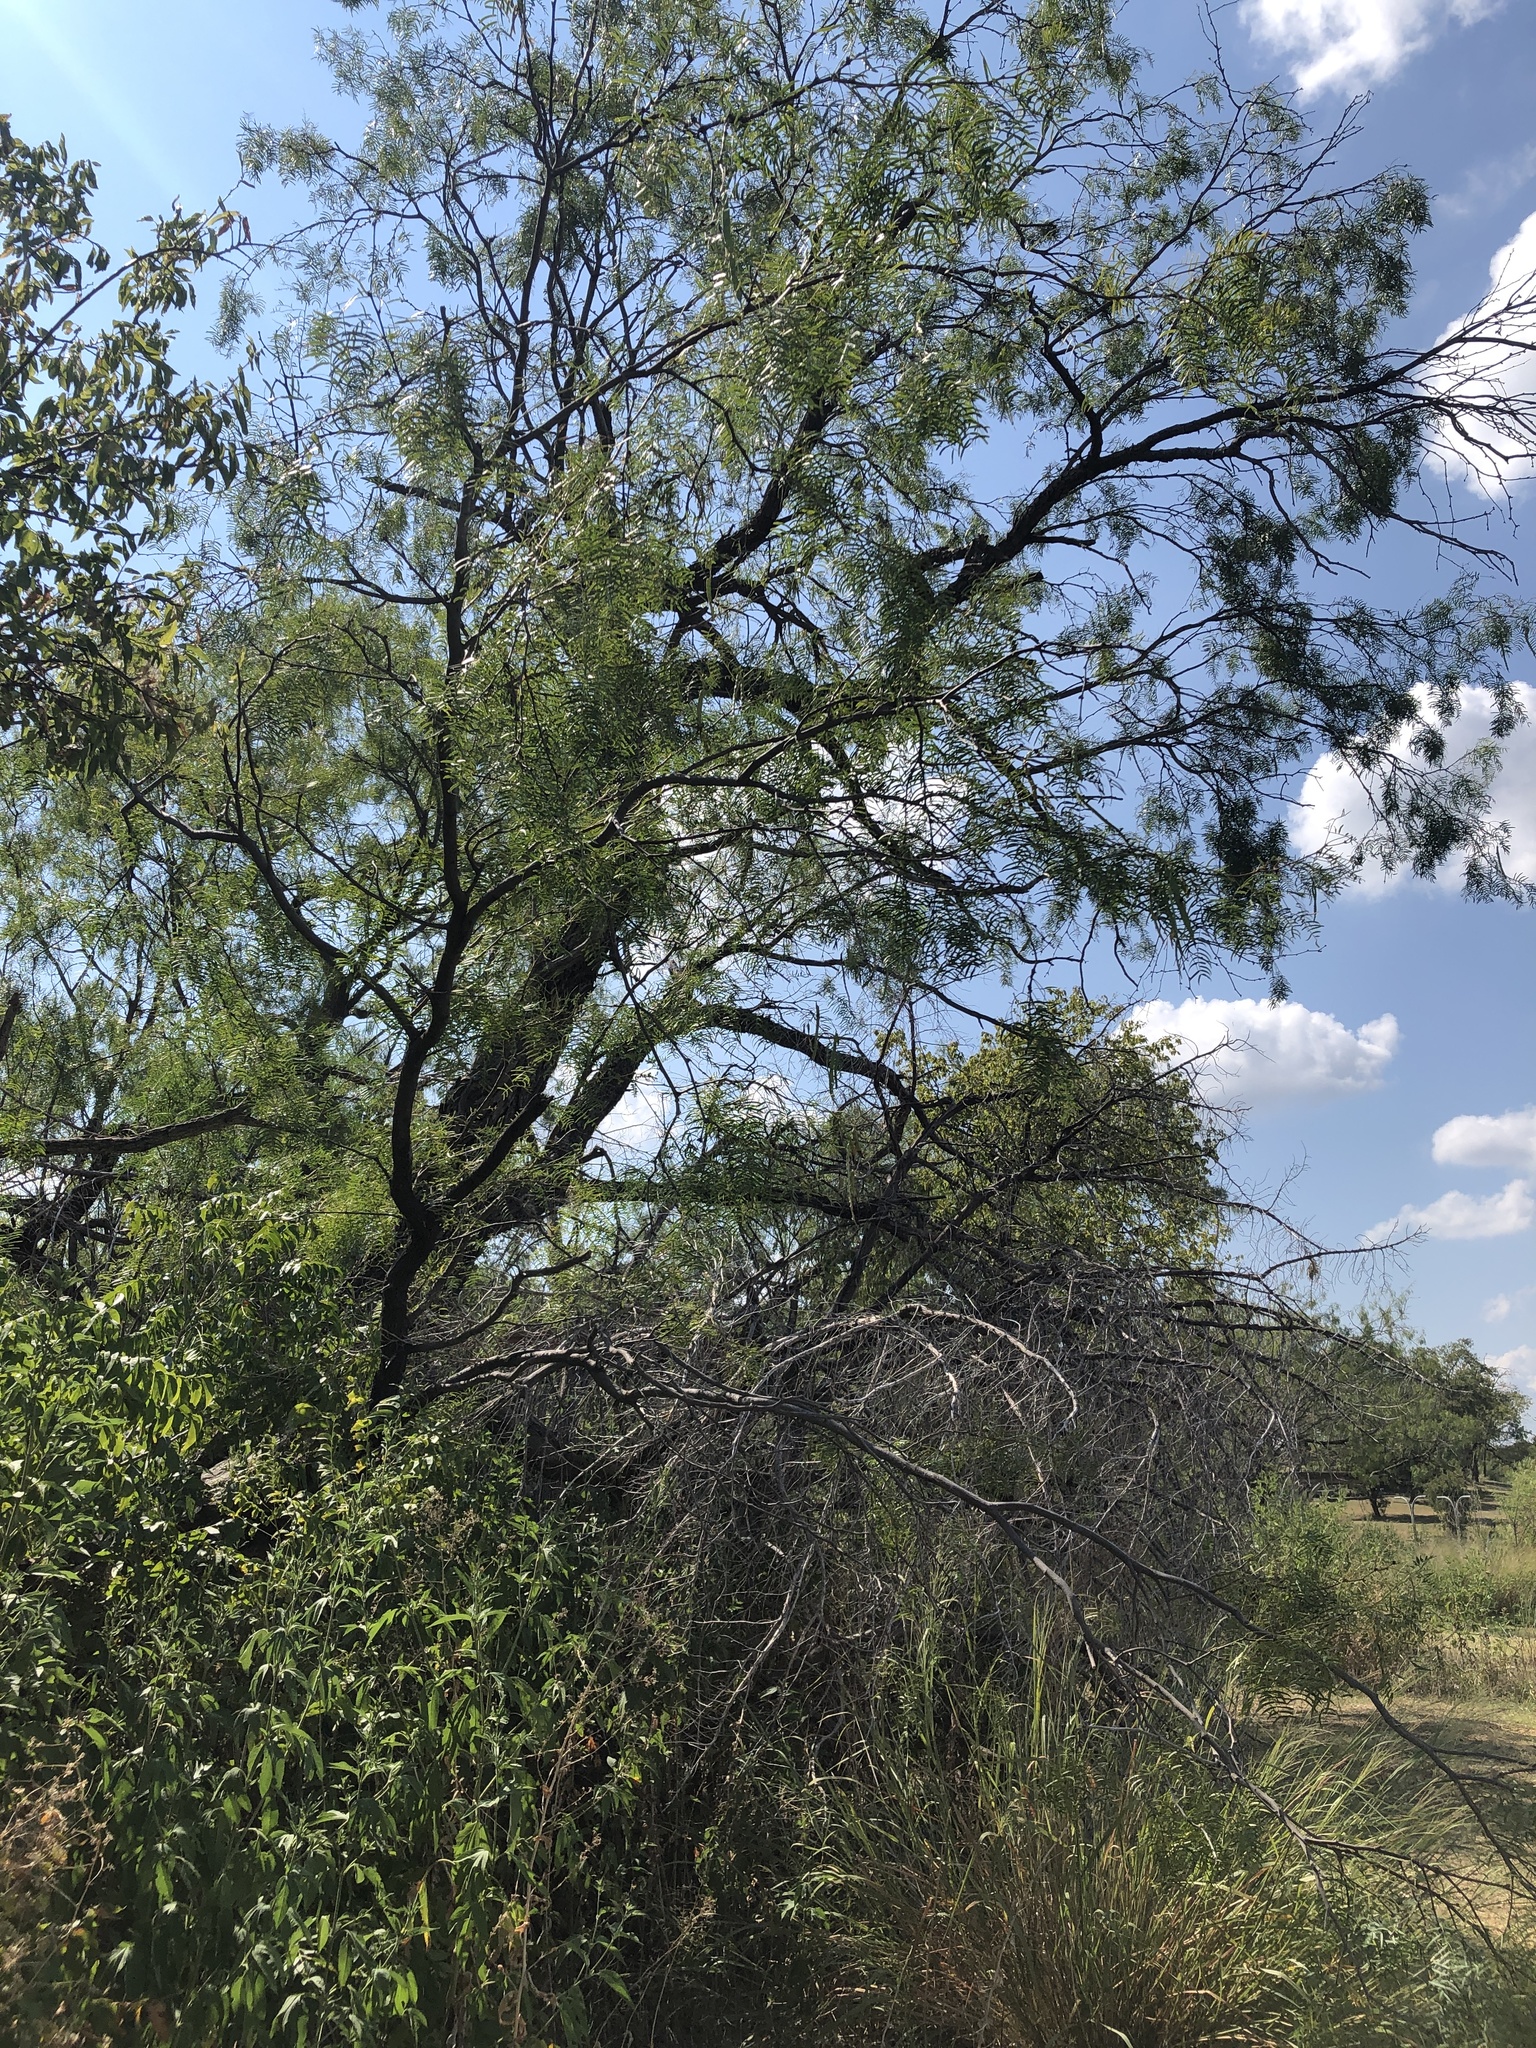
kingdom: Plantae
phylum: Tracheophyta
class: Magnoliopsida
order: Fabales
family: Fabaceae
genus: Prosopis
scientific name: Prosopis glandulosa
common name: Honey mesquite
